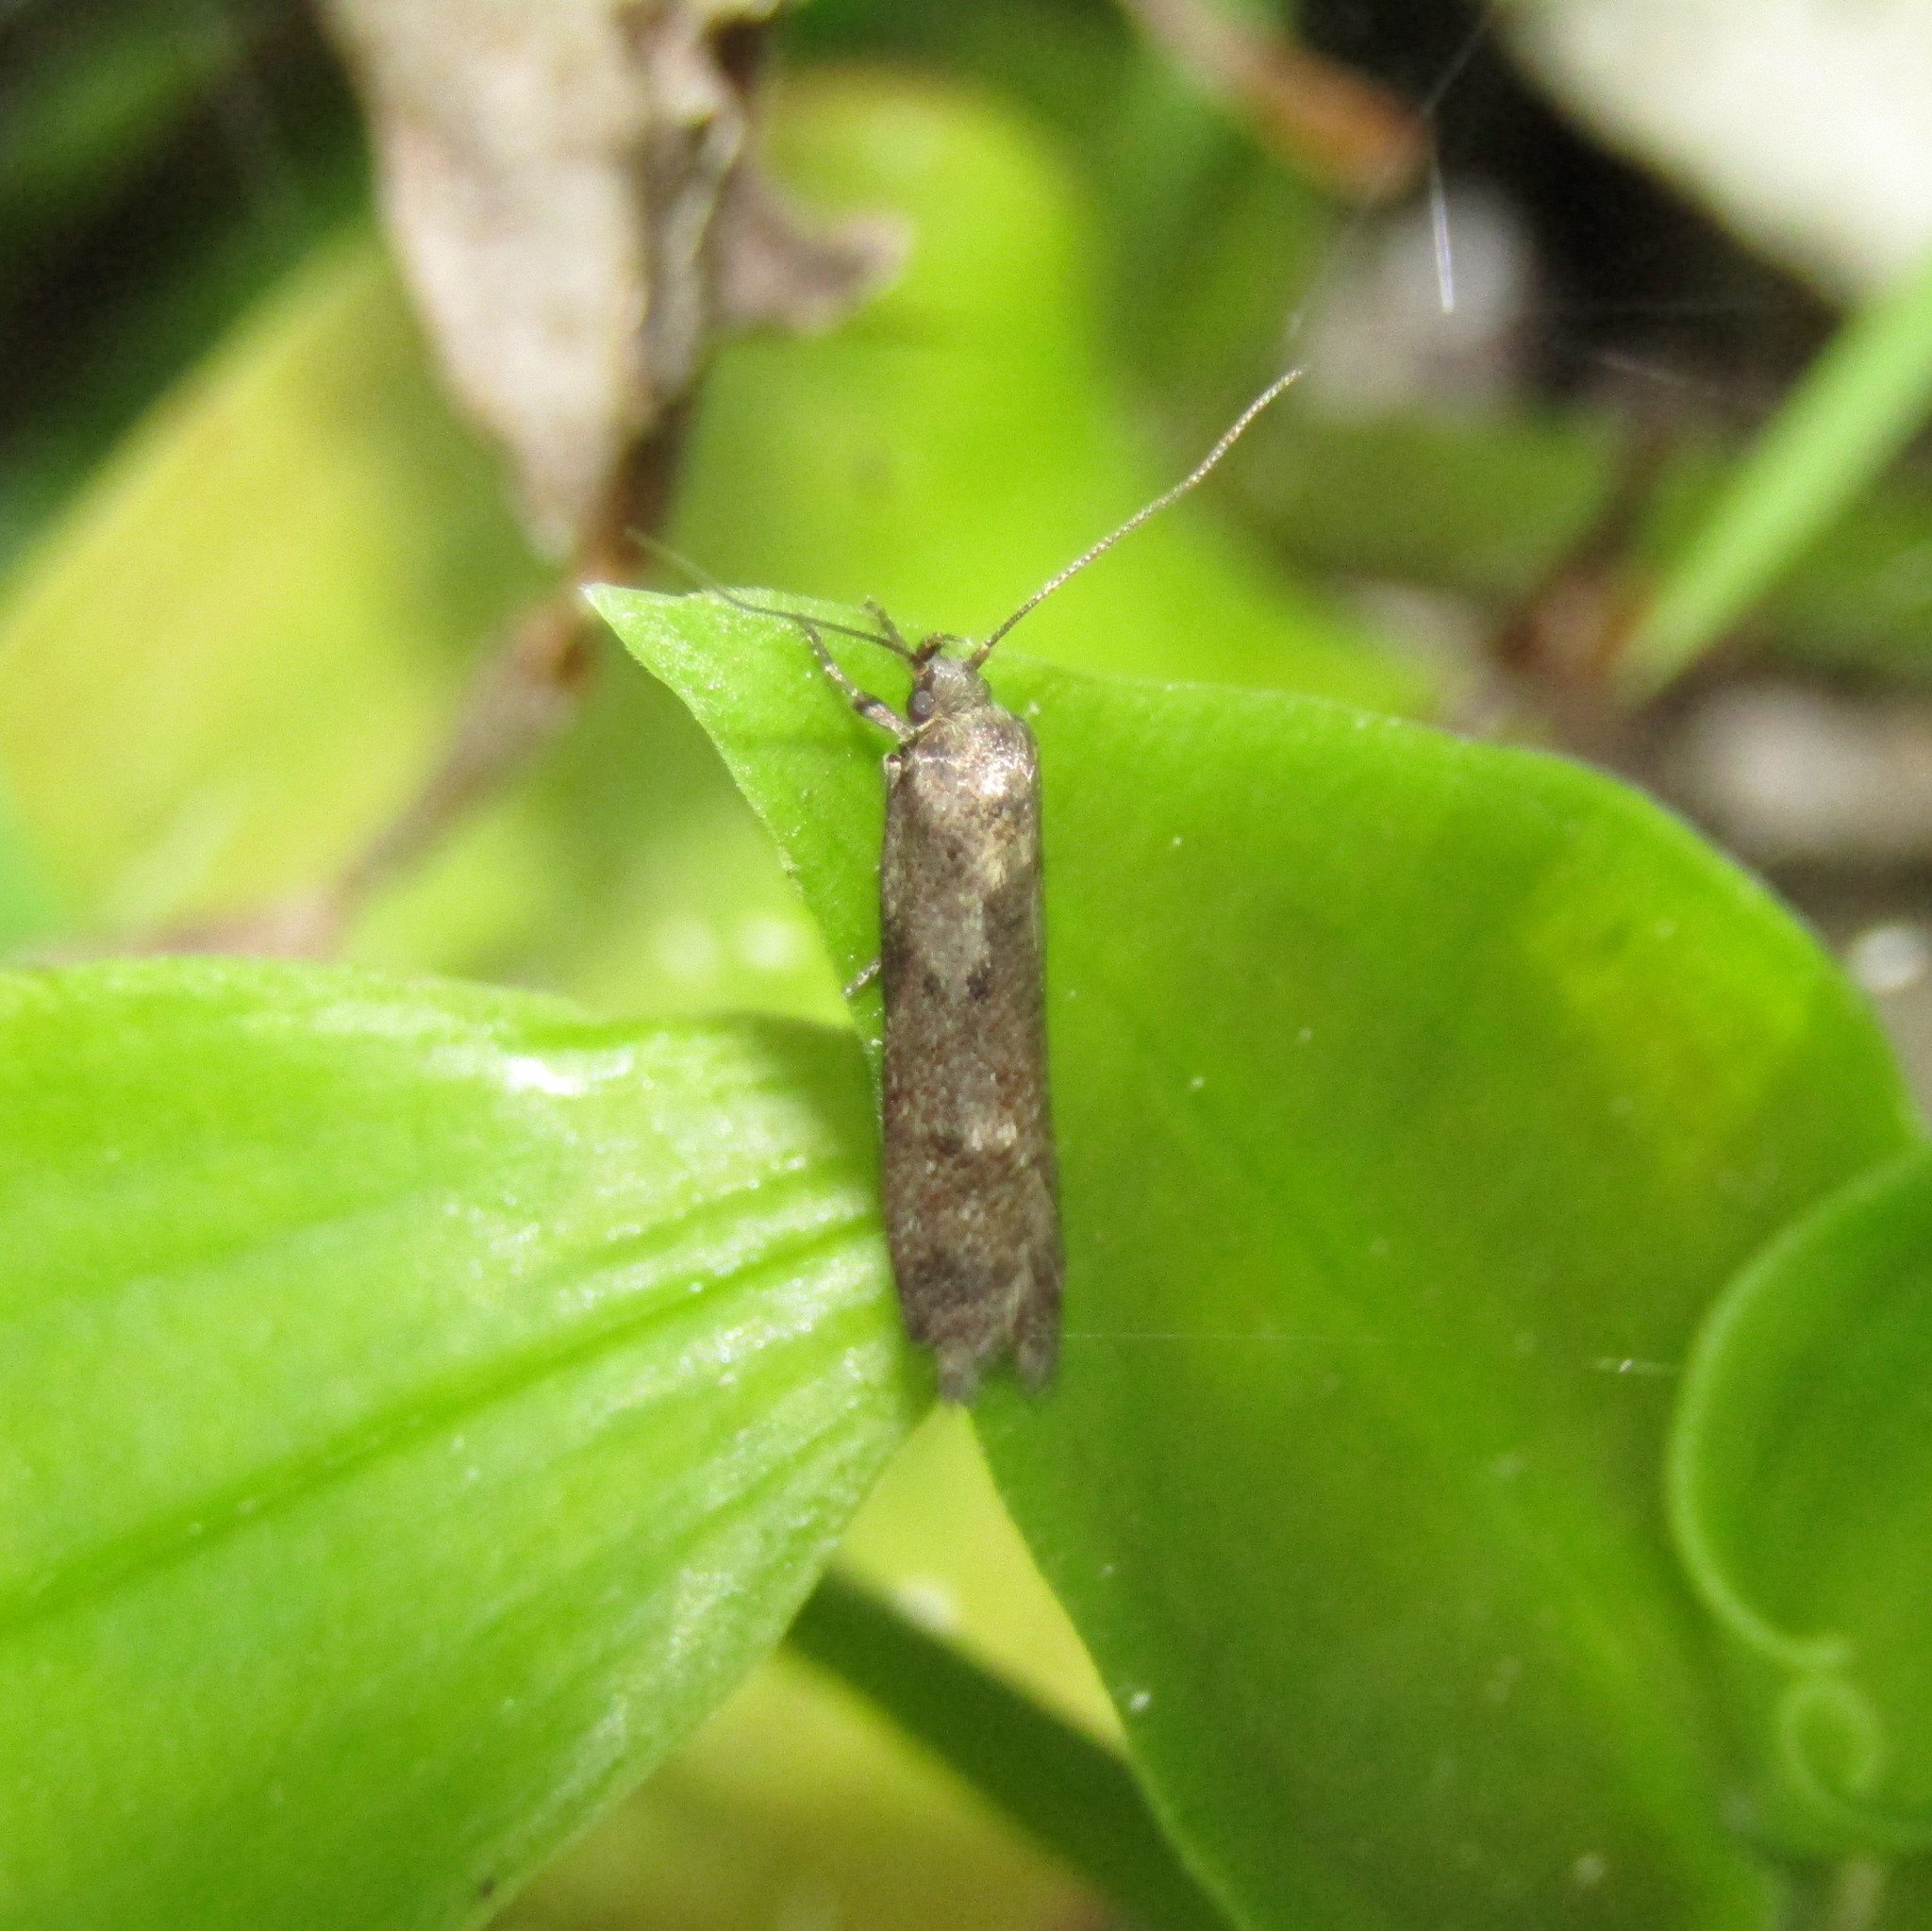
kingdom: Animalia
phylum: Arthropoda
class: Insecta
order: Lepidoptera
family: Oecophoridae
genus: Chersadaula
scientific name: Chersadaula ochrogastra
